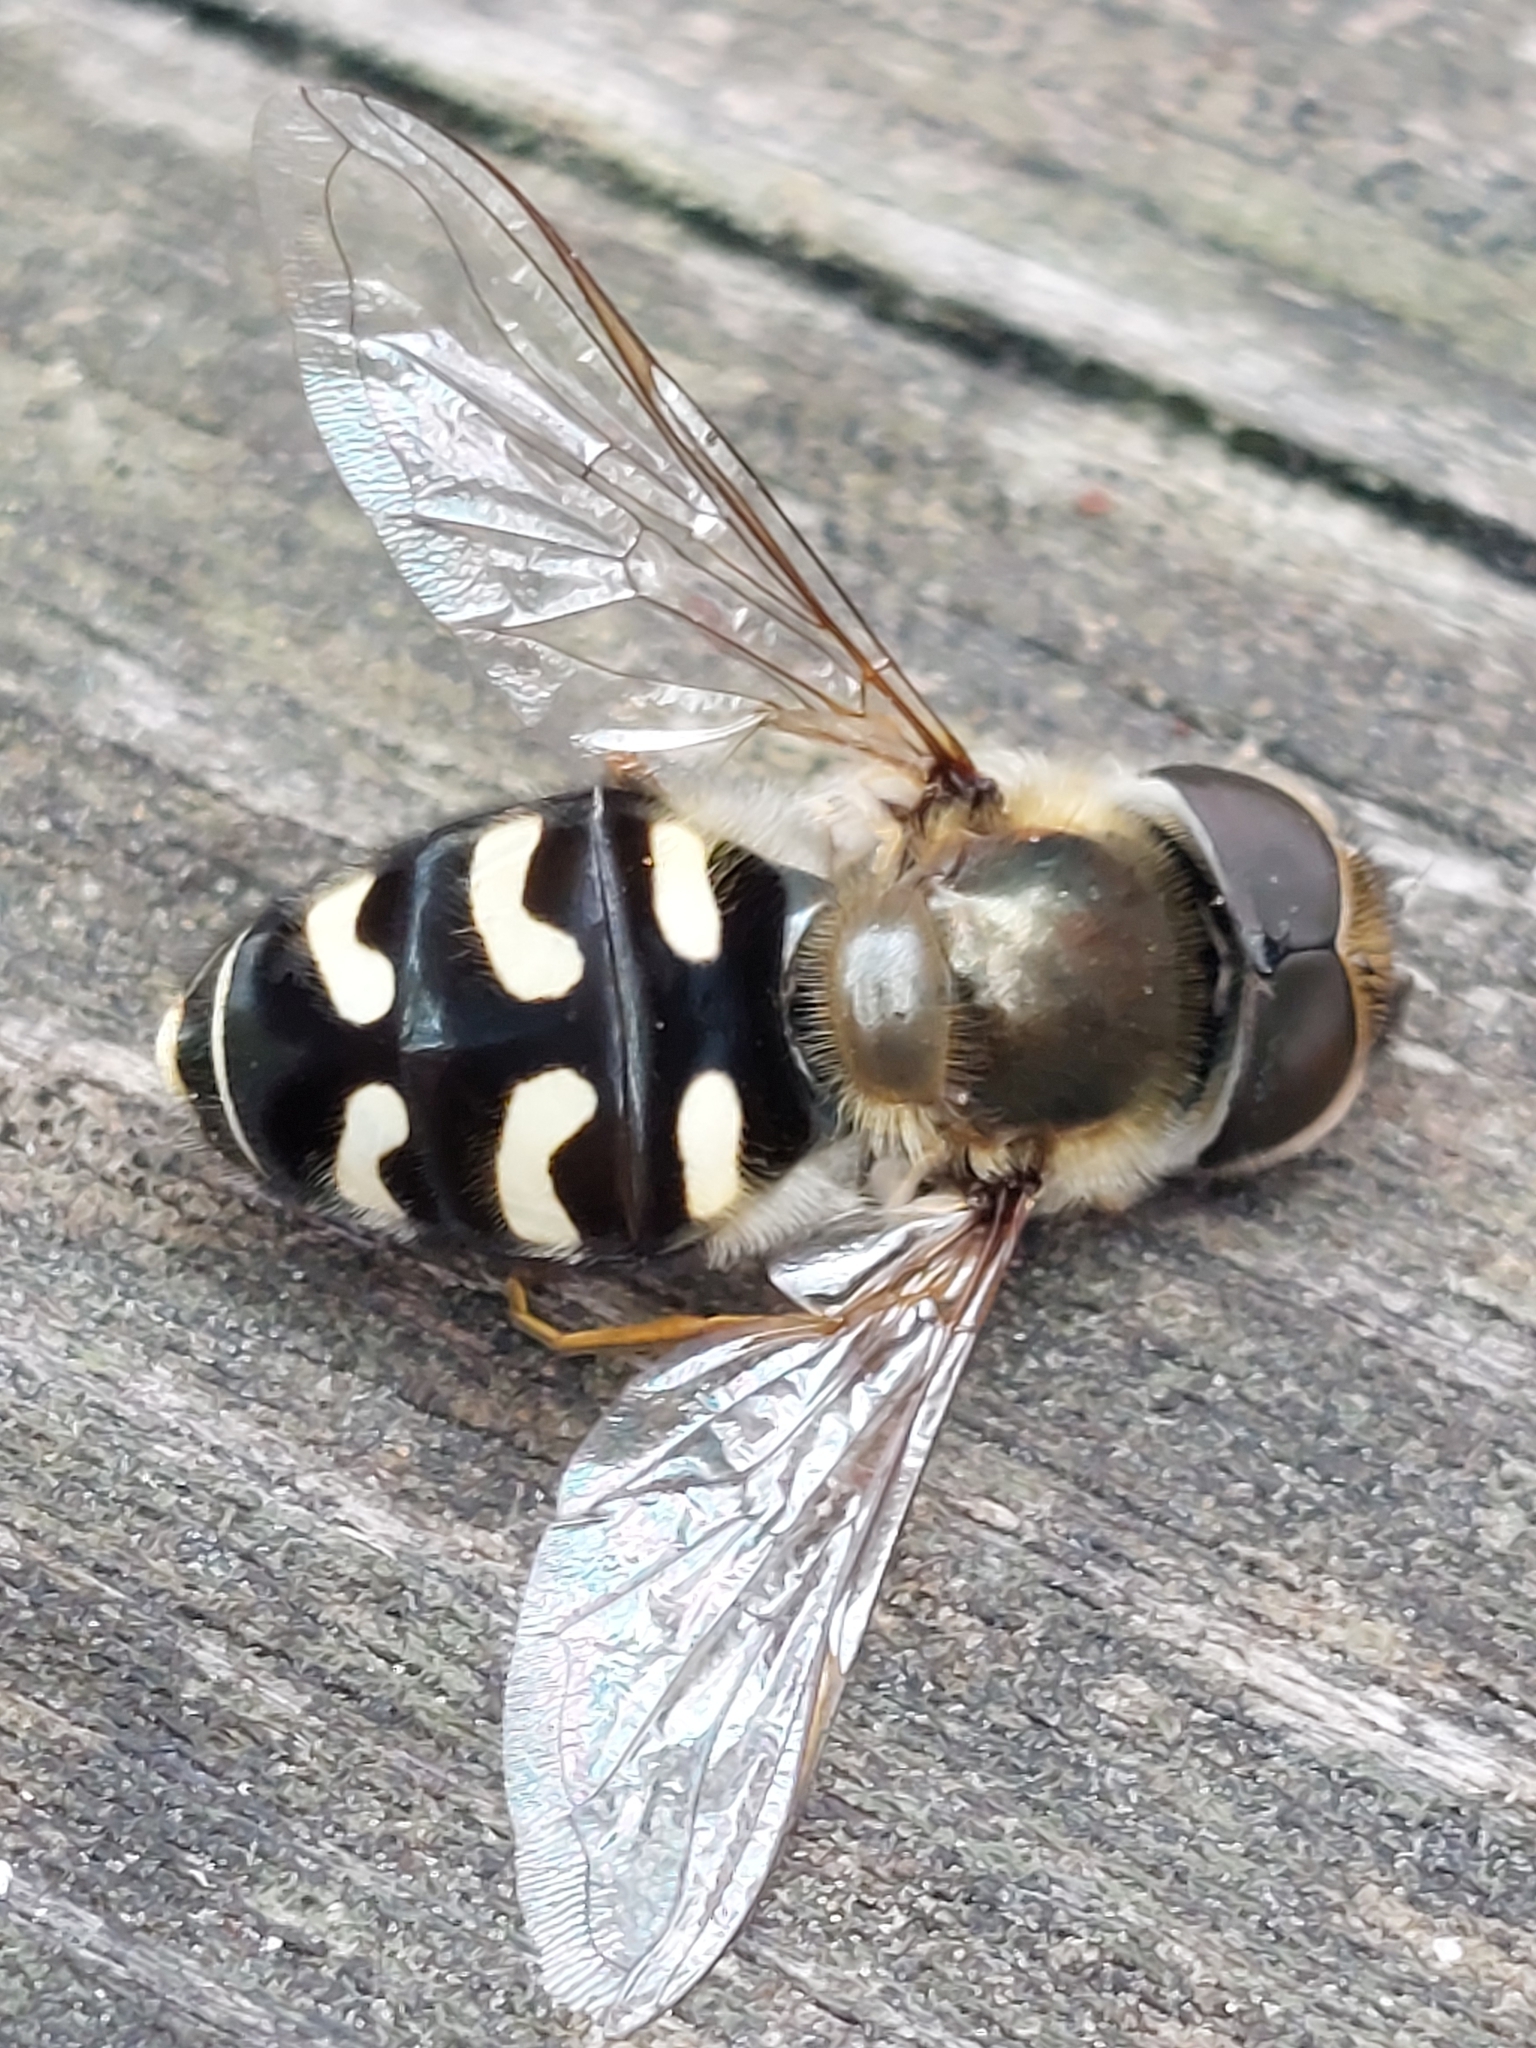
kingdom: Animalia
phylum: Arthropoda
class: Insecta
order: Diptera
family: Syrphidae
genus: Scaeva
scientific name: Scaeva pyrastri
